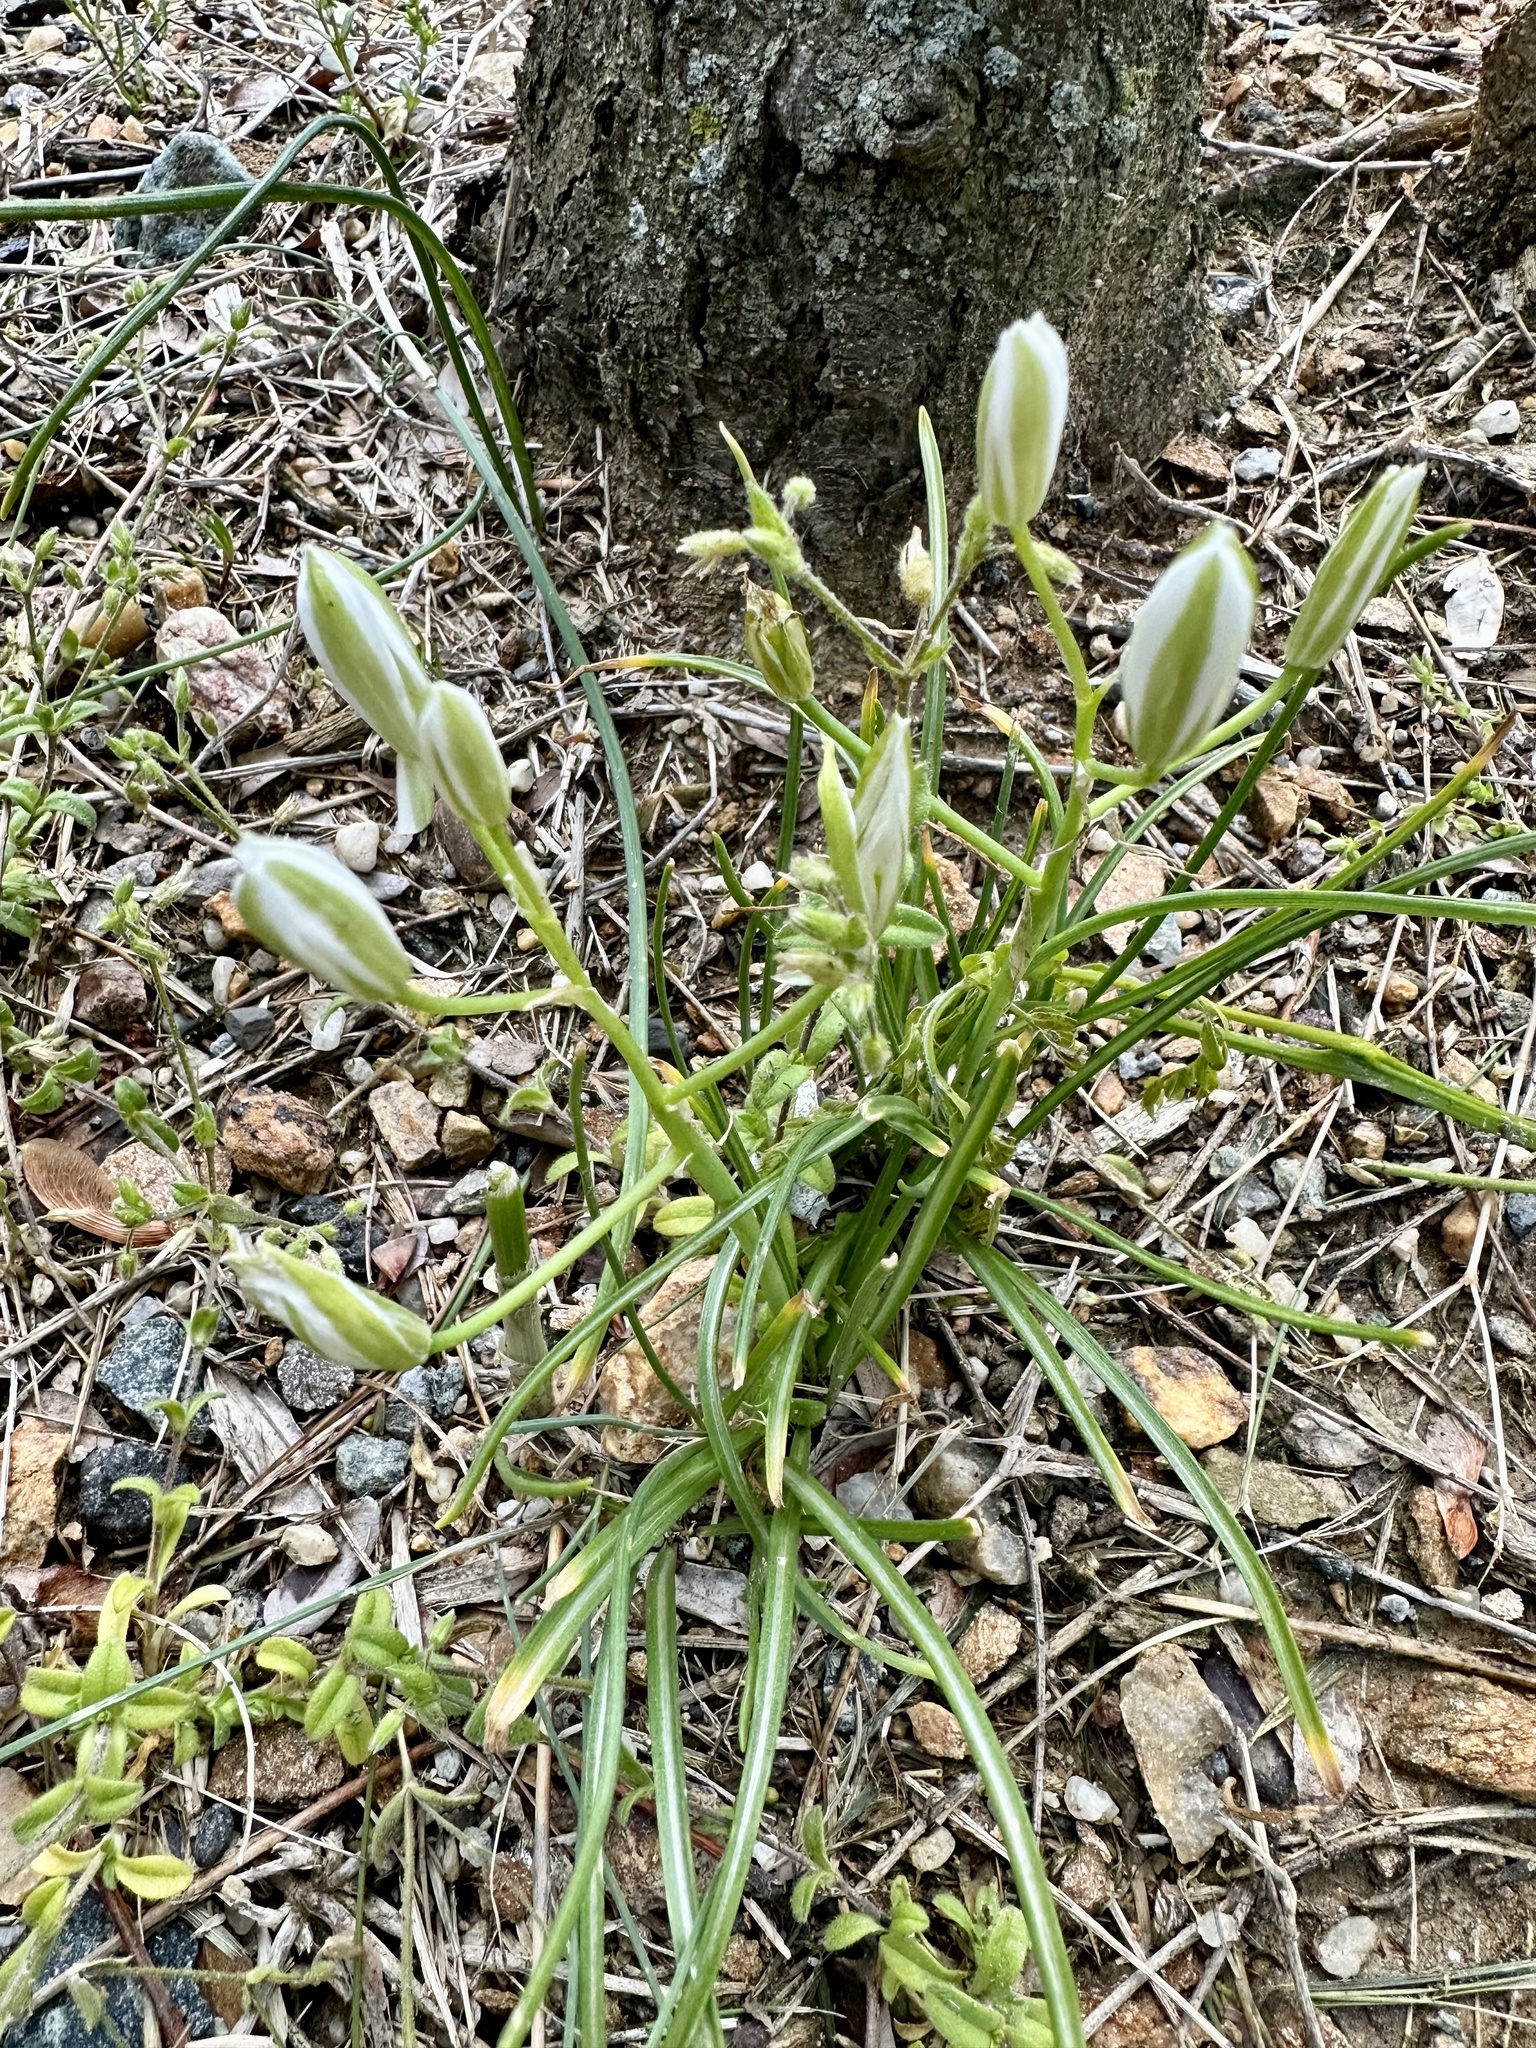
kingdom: Plantae
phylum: Tracheophyta
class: Liliopsida
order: Asparagales
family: Asparagaceae
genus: Ornithogalum
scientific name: Ornithogalum umbellatum
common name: Garden star-of-bethlehem
